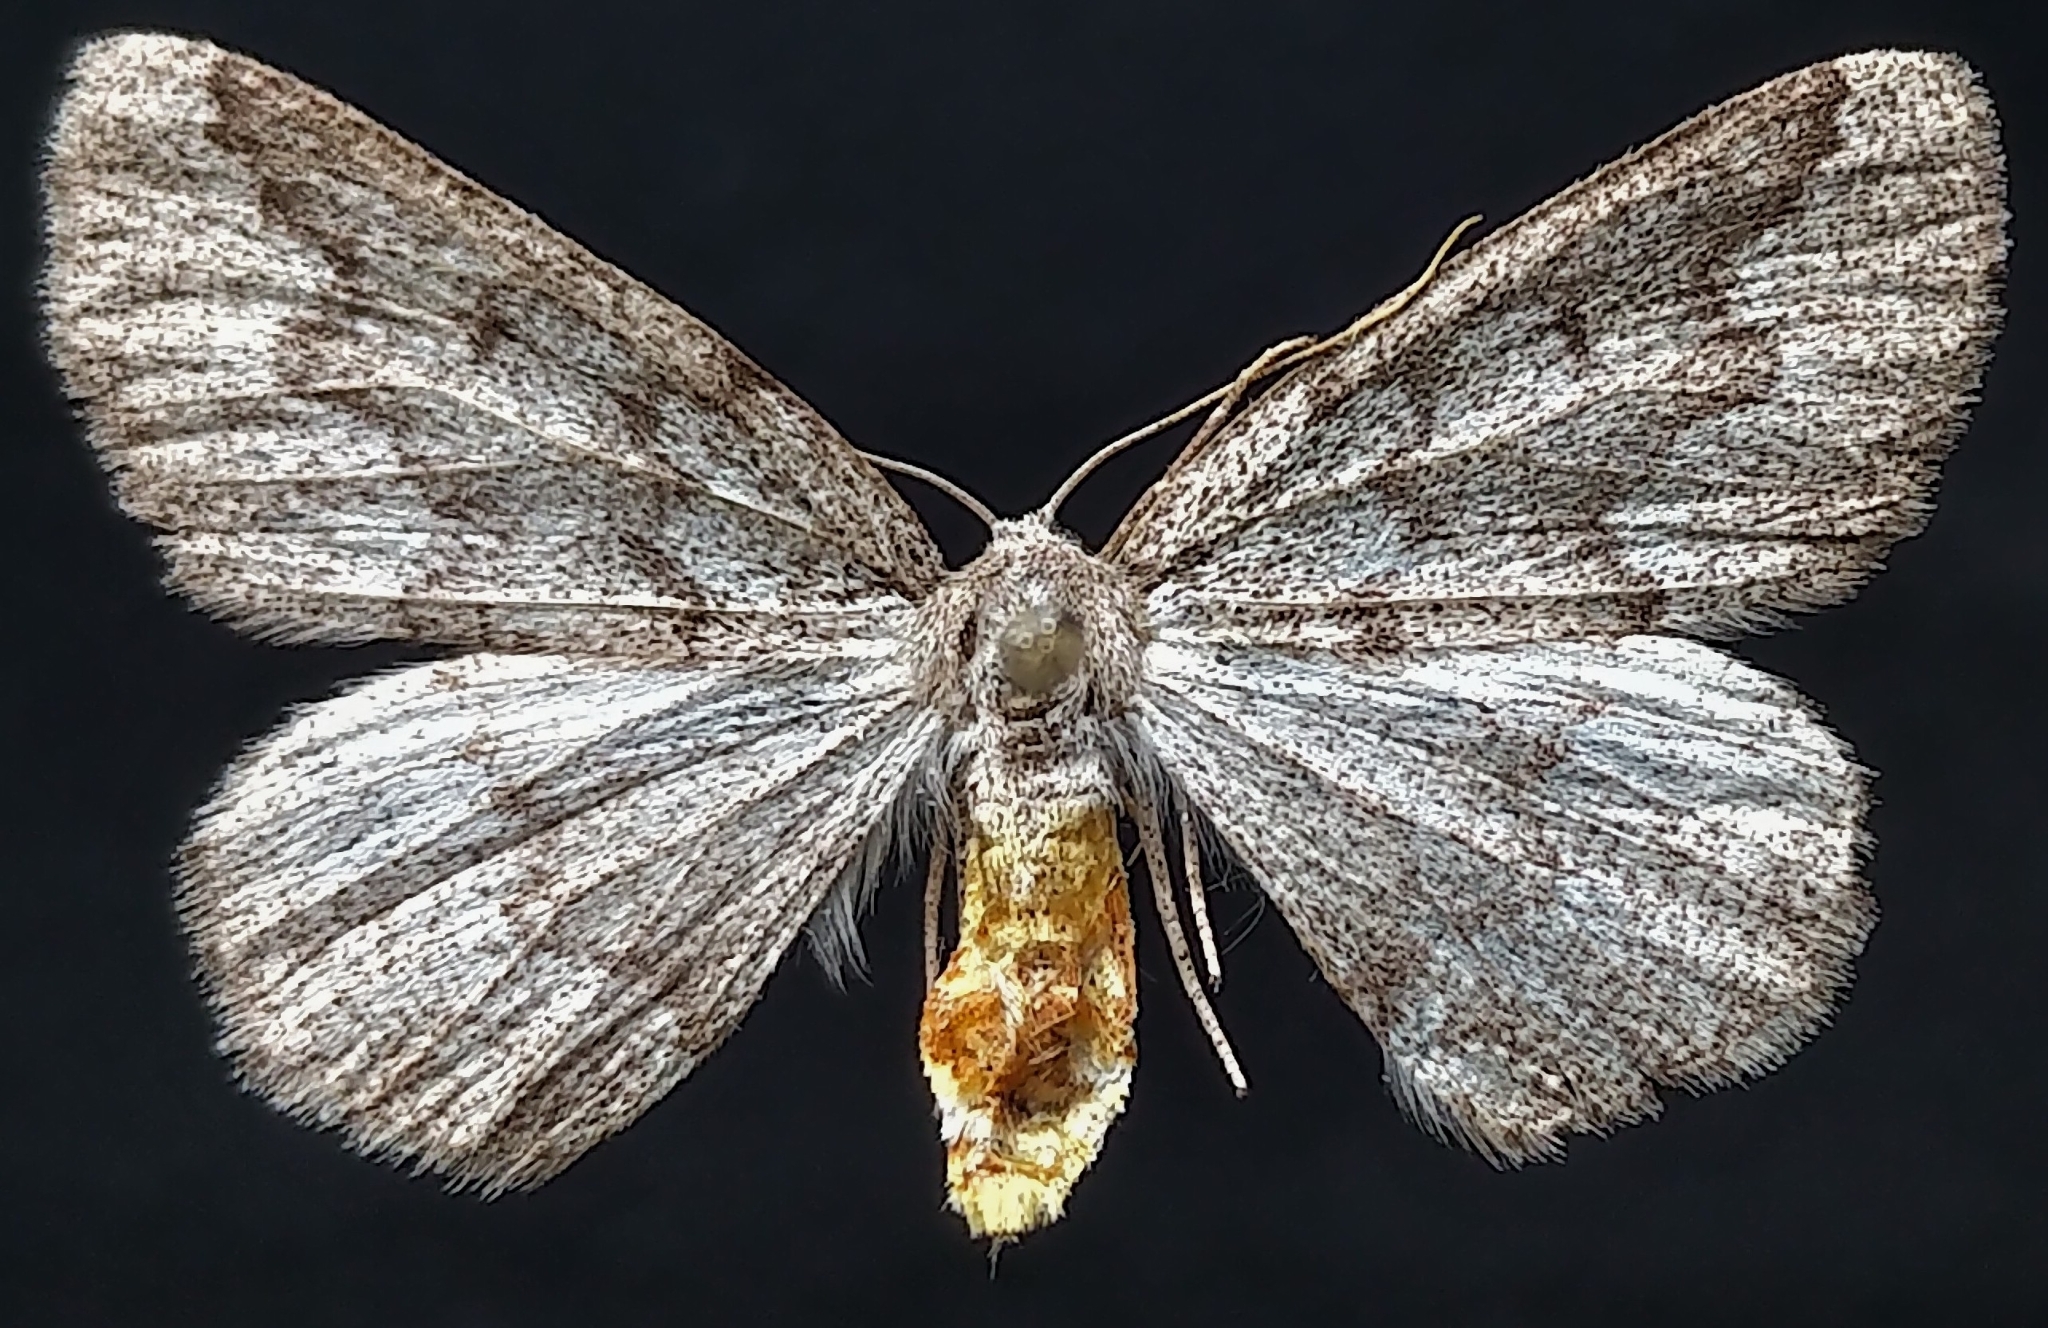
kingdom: Animalia
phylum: Arthropoda
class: Insecta
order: Lepidoptera
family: Geometridae
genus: Nepytia
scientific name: Nepytia freemani
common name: Western false hemlock looper
